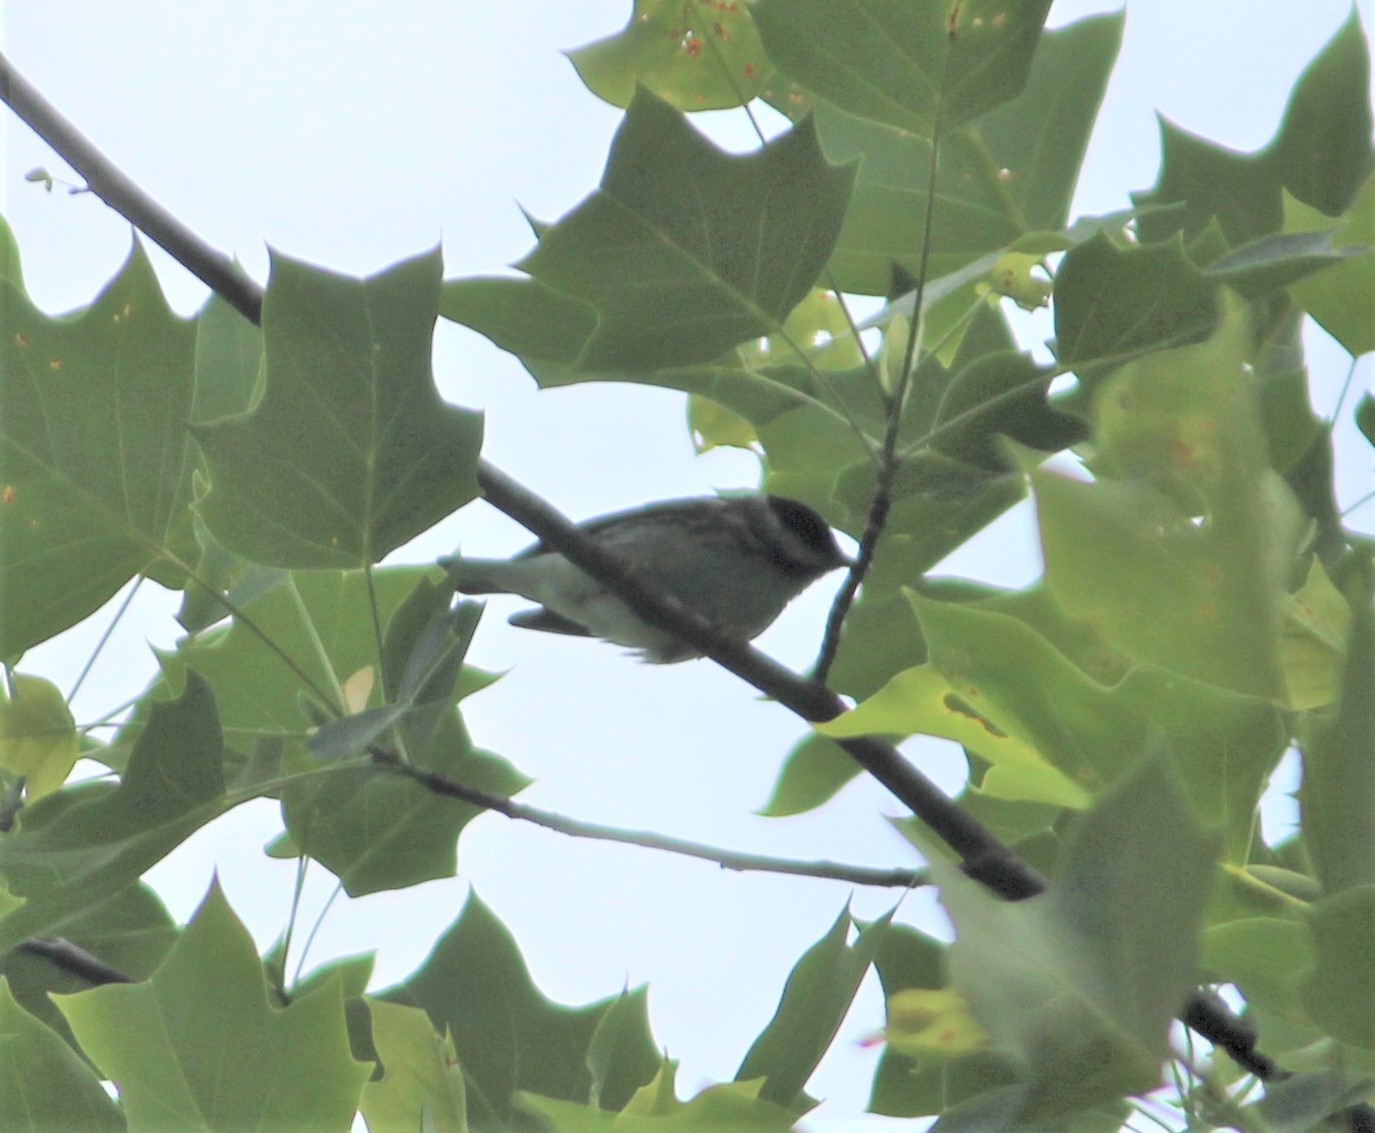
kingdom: Animalia
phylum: Chordata
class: Aves
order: Passeriformes
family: Parulidae
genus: Setophaga
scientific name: Setophaga striata
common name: Blackpoll warbler
